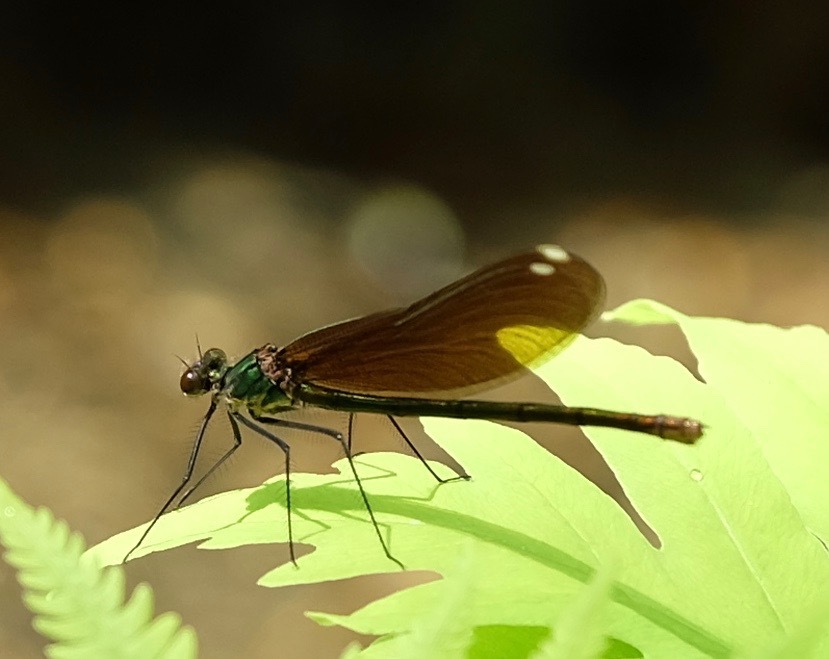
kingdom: Animalia
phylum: Arthropoda
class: Insecta
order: Odonata
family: Calopterygidae
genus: Calopteryx
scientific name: Calopteryx maculata
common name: Ebony jewelwing
